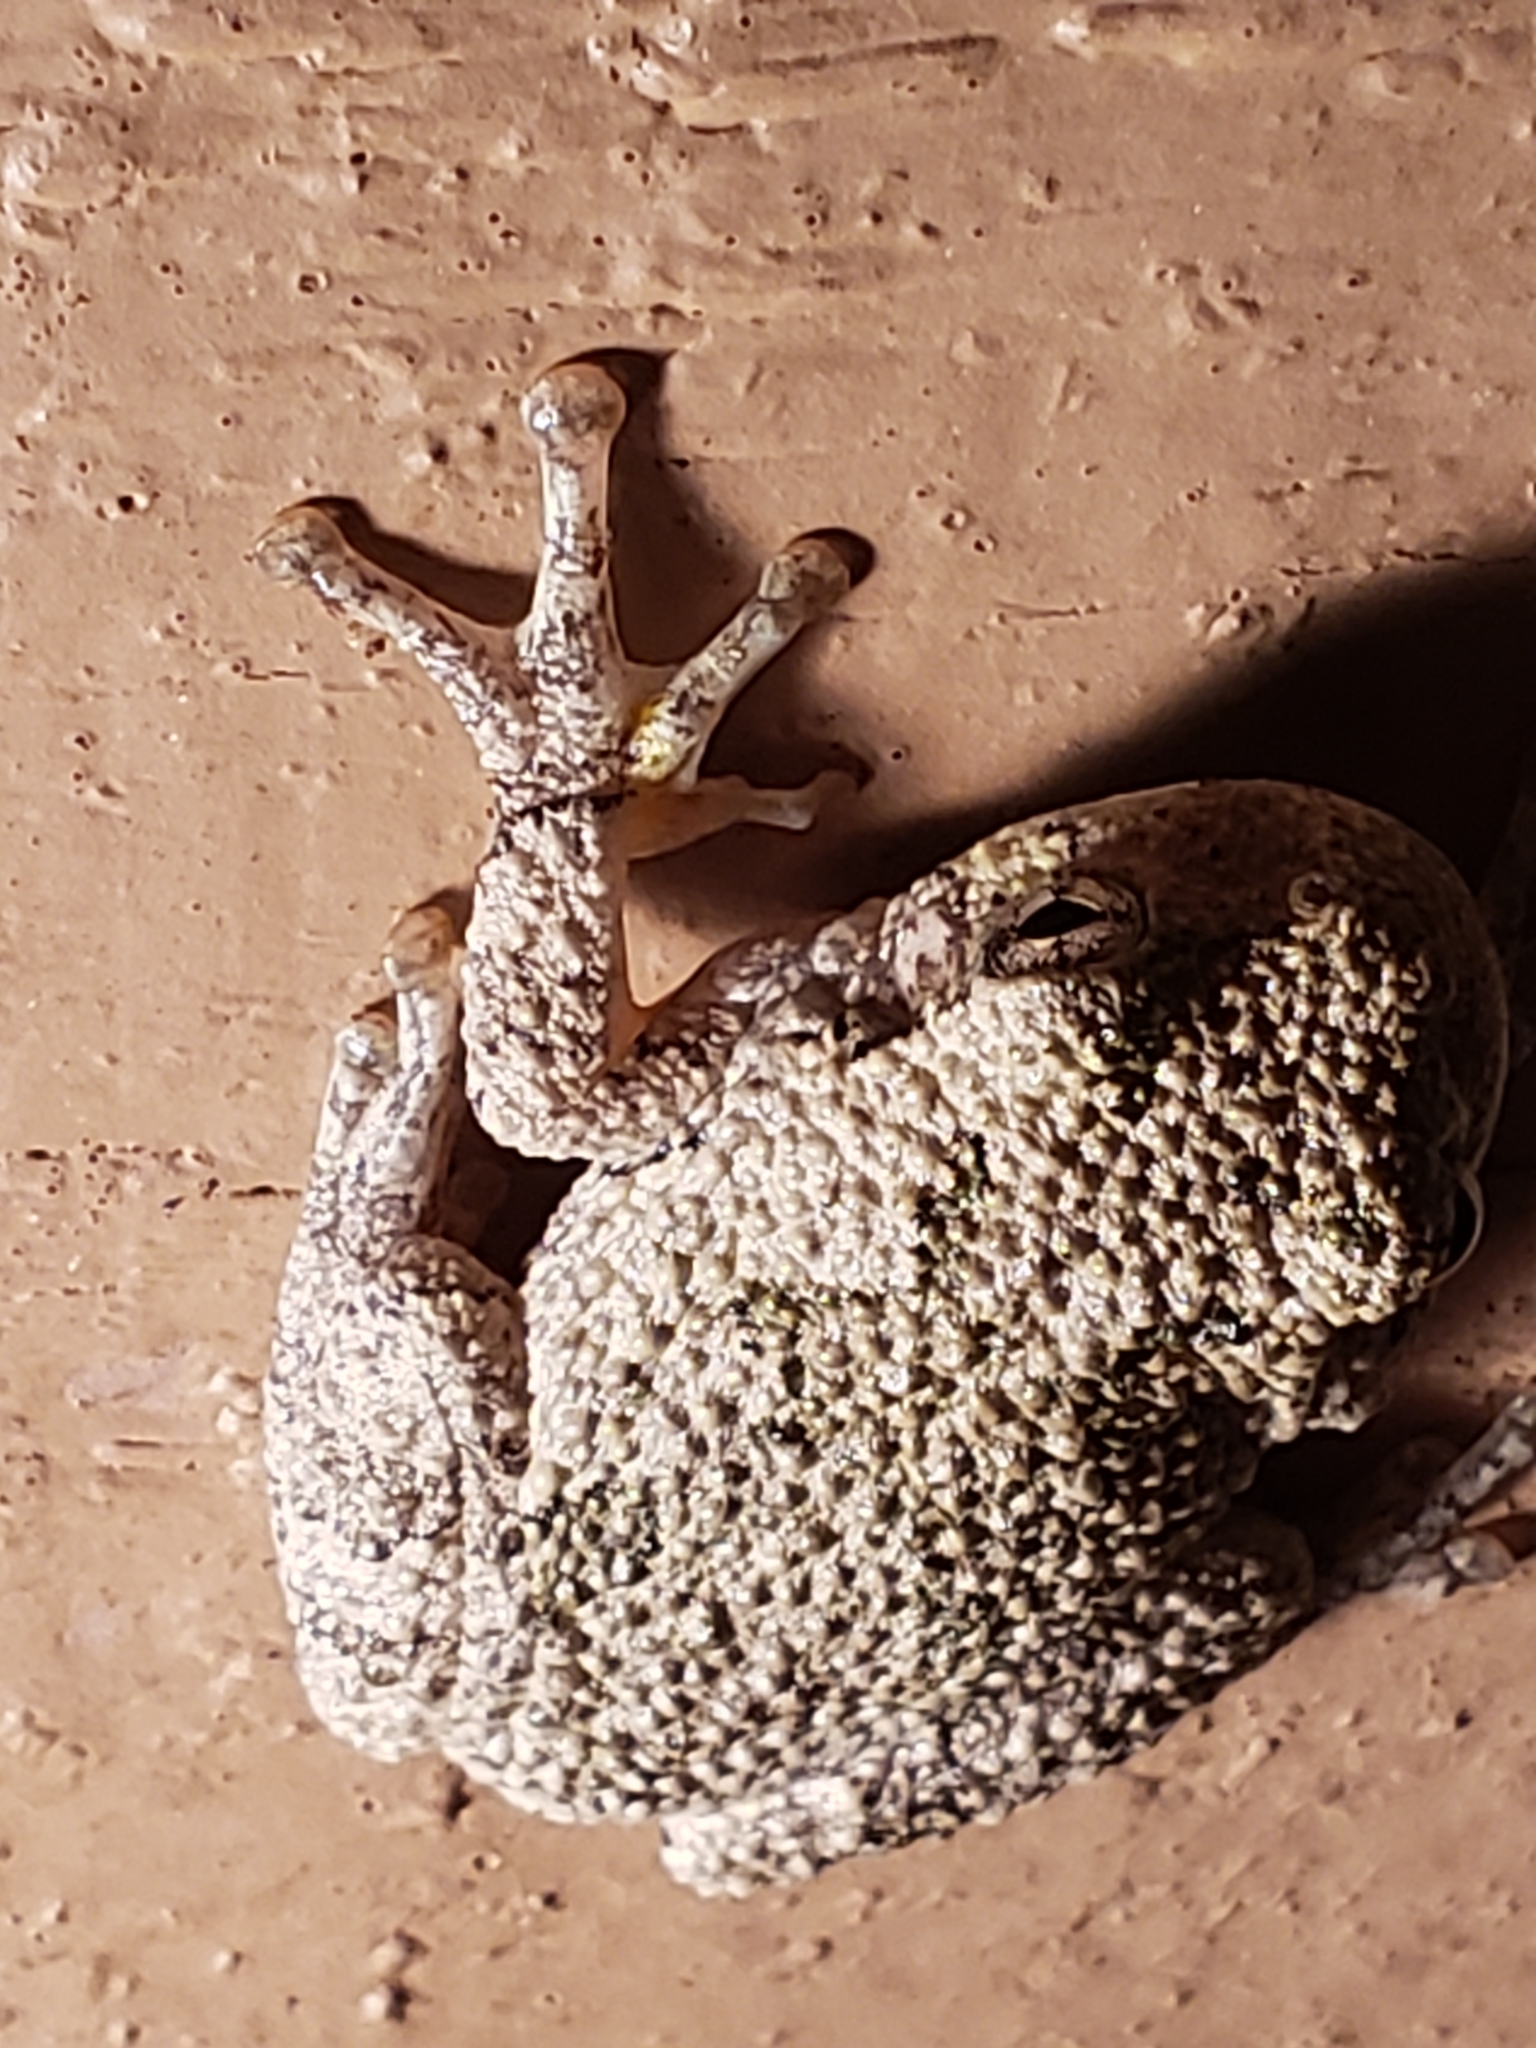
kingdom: Animalia
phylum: Chordata
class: Amphibia
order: Anura
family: Hylidae
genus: Hyla
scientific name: Hyla
